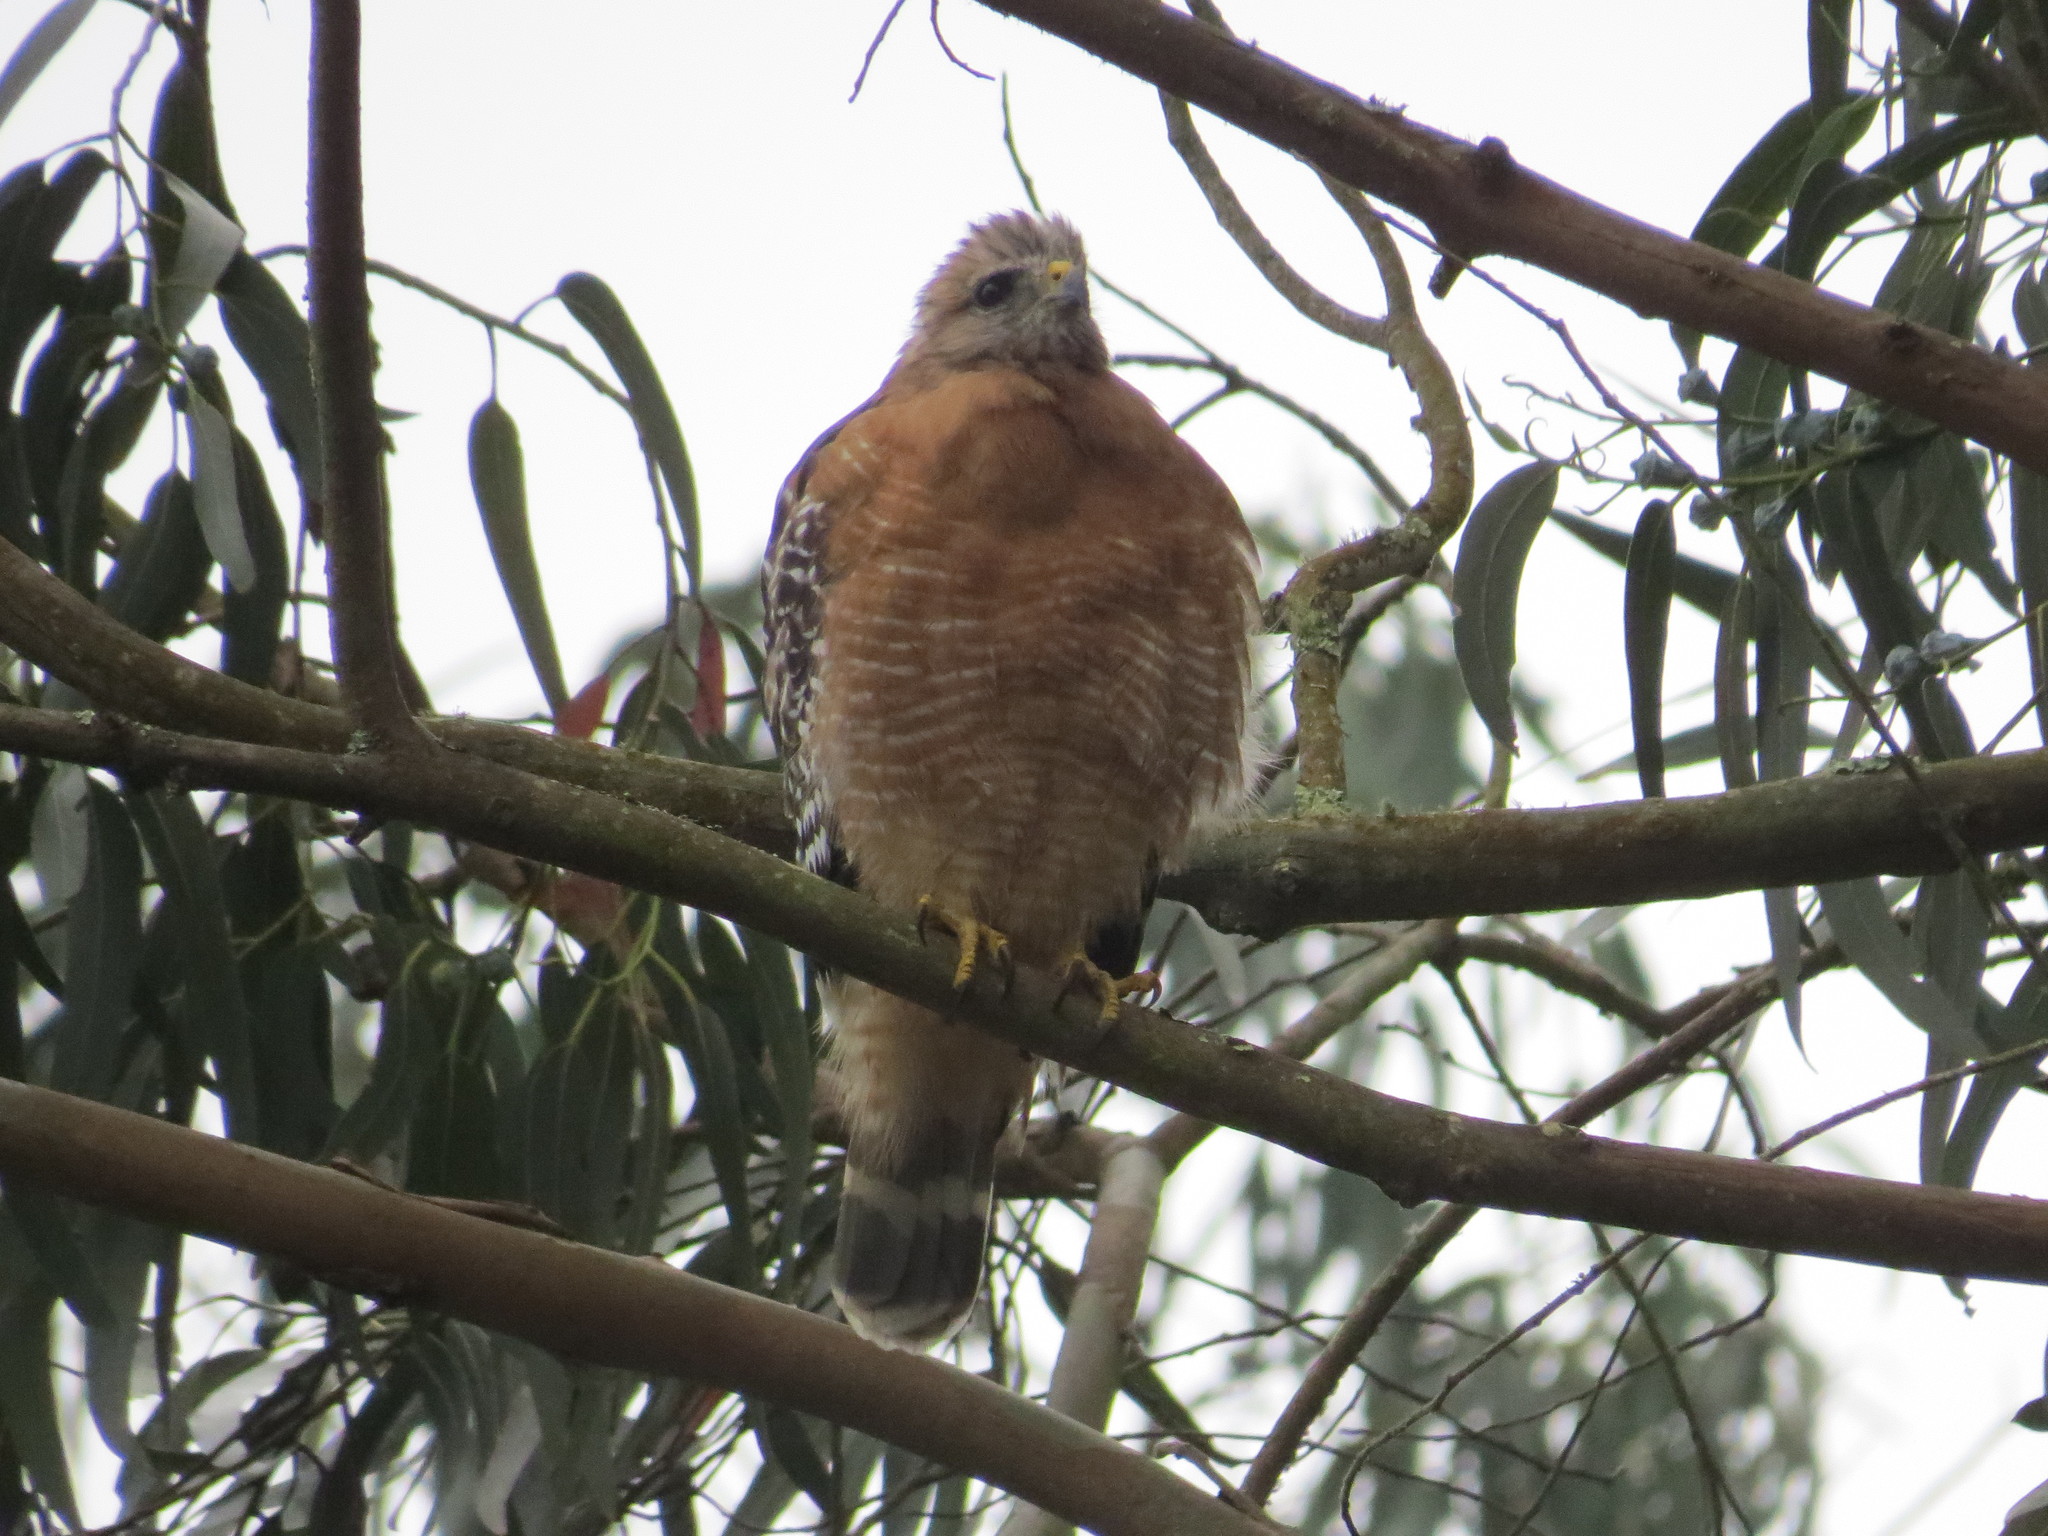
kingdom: Animalia
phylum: Chordata
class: Aves
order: Accipitriformes
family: Accipitridae
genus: Buteo
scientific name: Buteo lineatus
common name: Red-shouldered hawk
